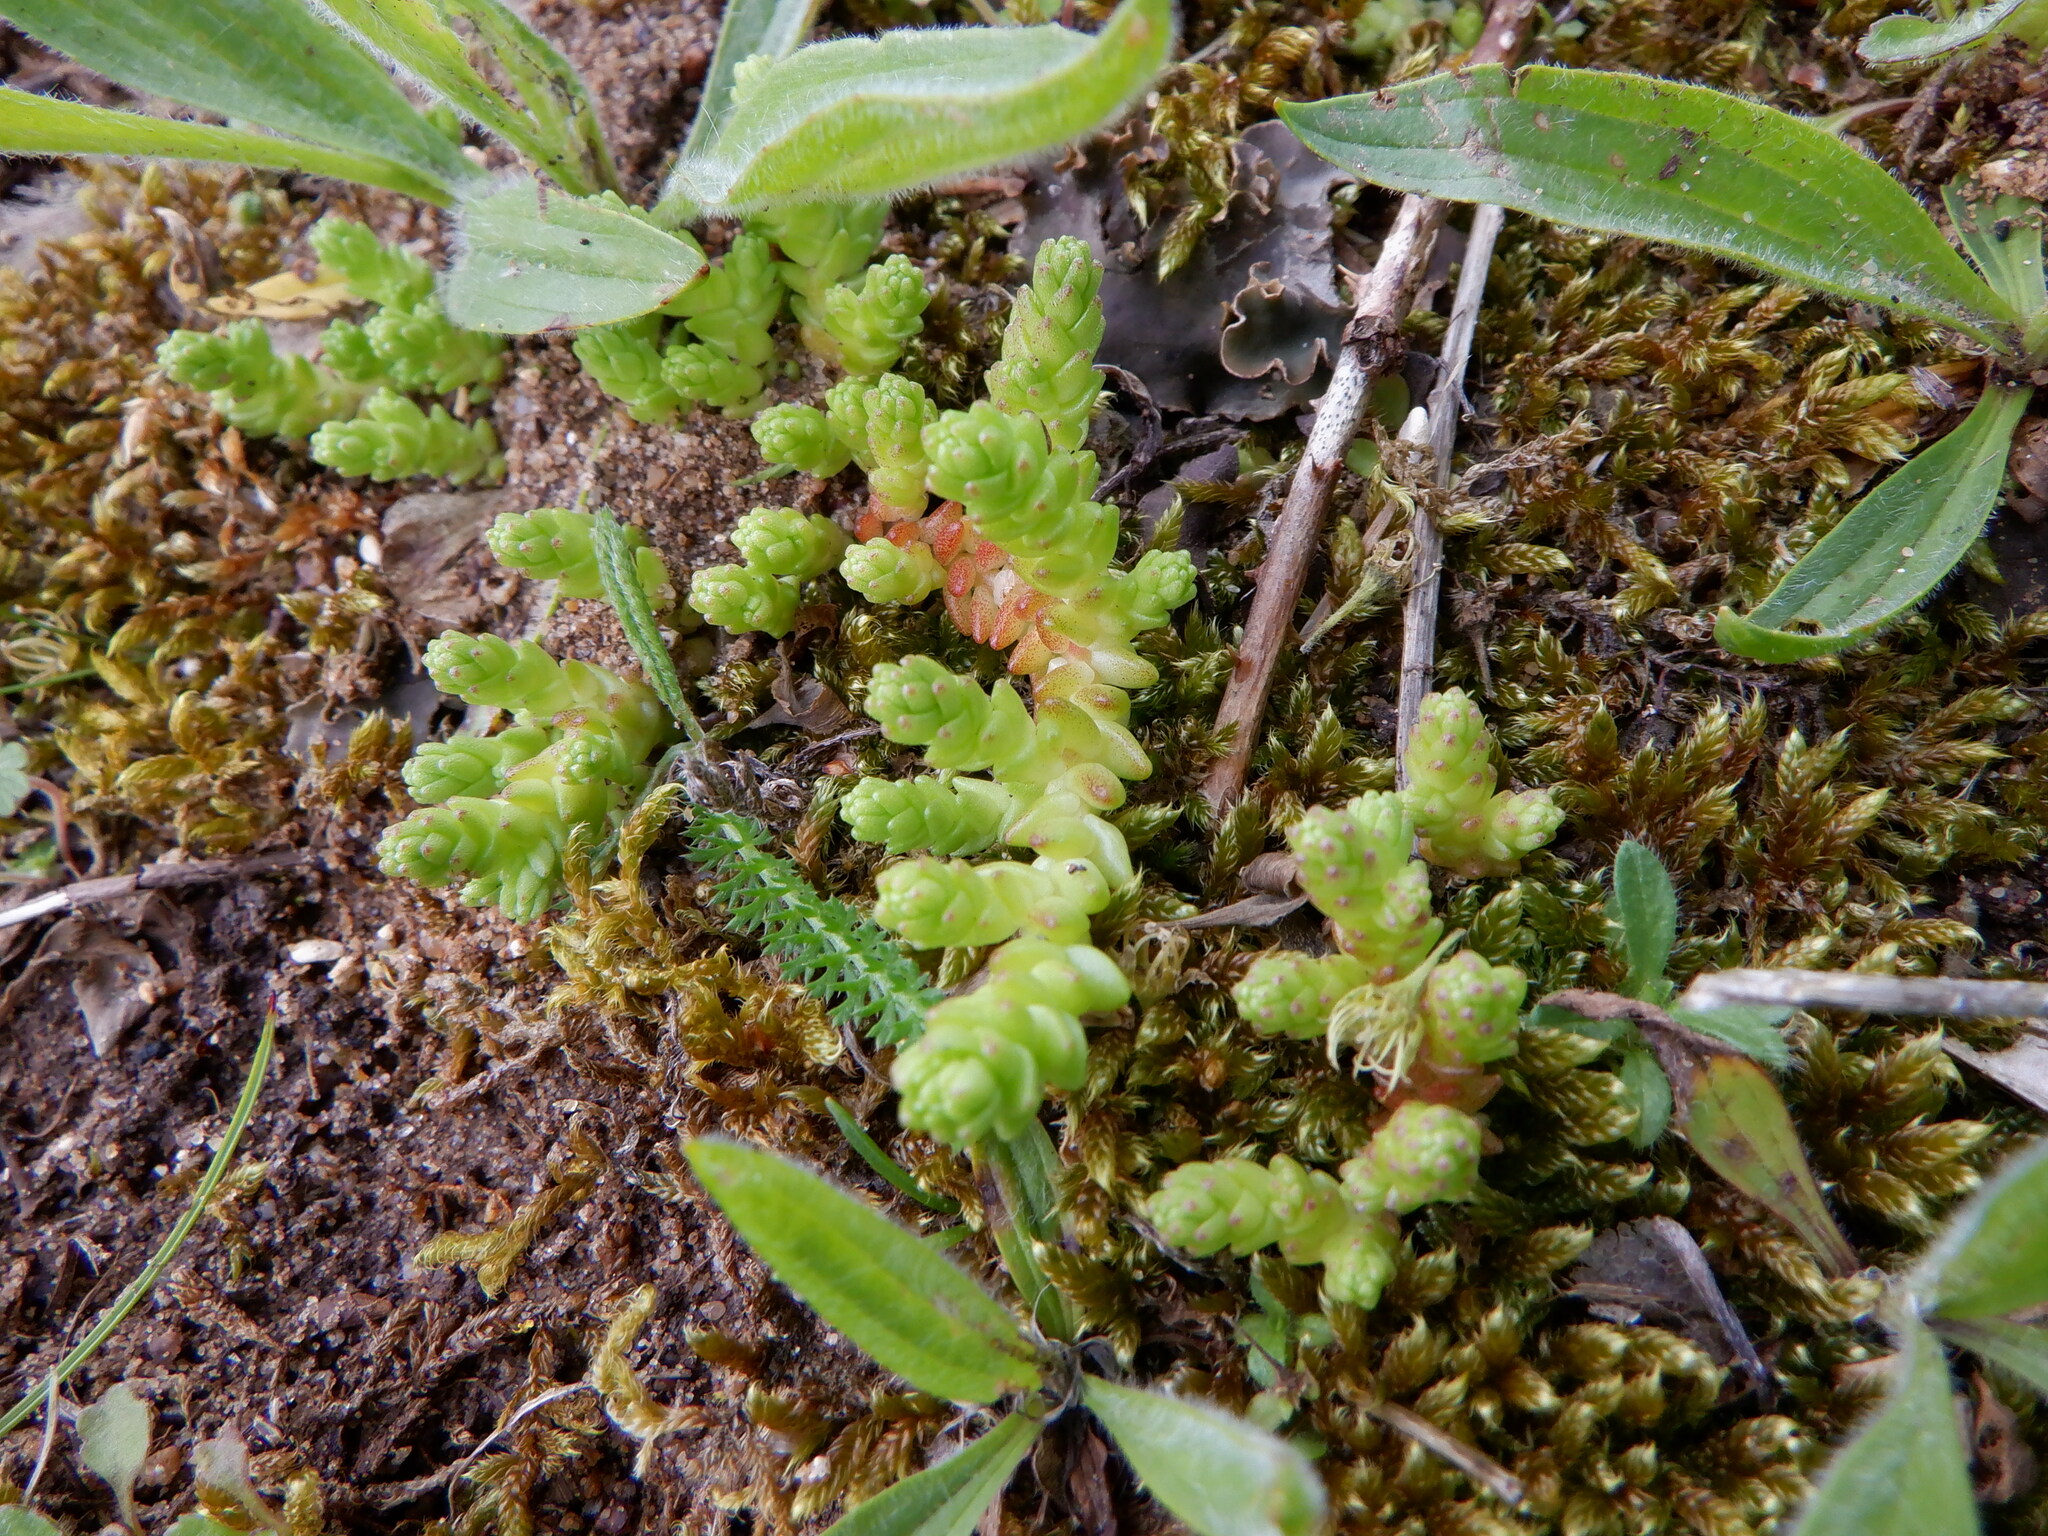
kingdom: Plantae
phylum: Tracheophyta
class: Magnoliopsida
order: Saxifragales
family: Crassulaceae
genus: Sedum
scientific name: Sedum acre
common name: Biting stonecrop
